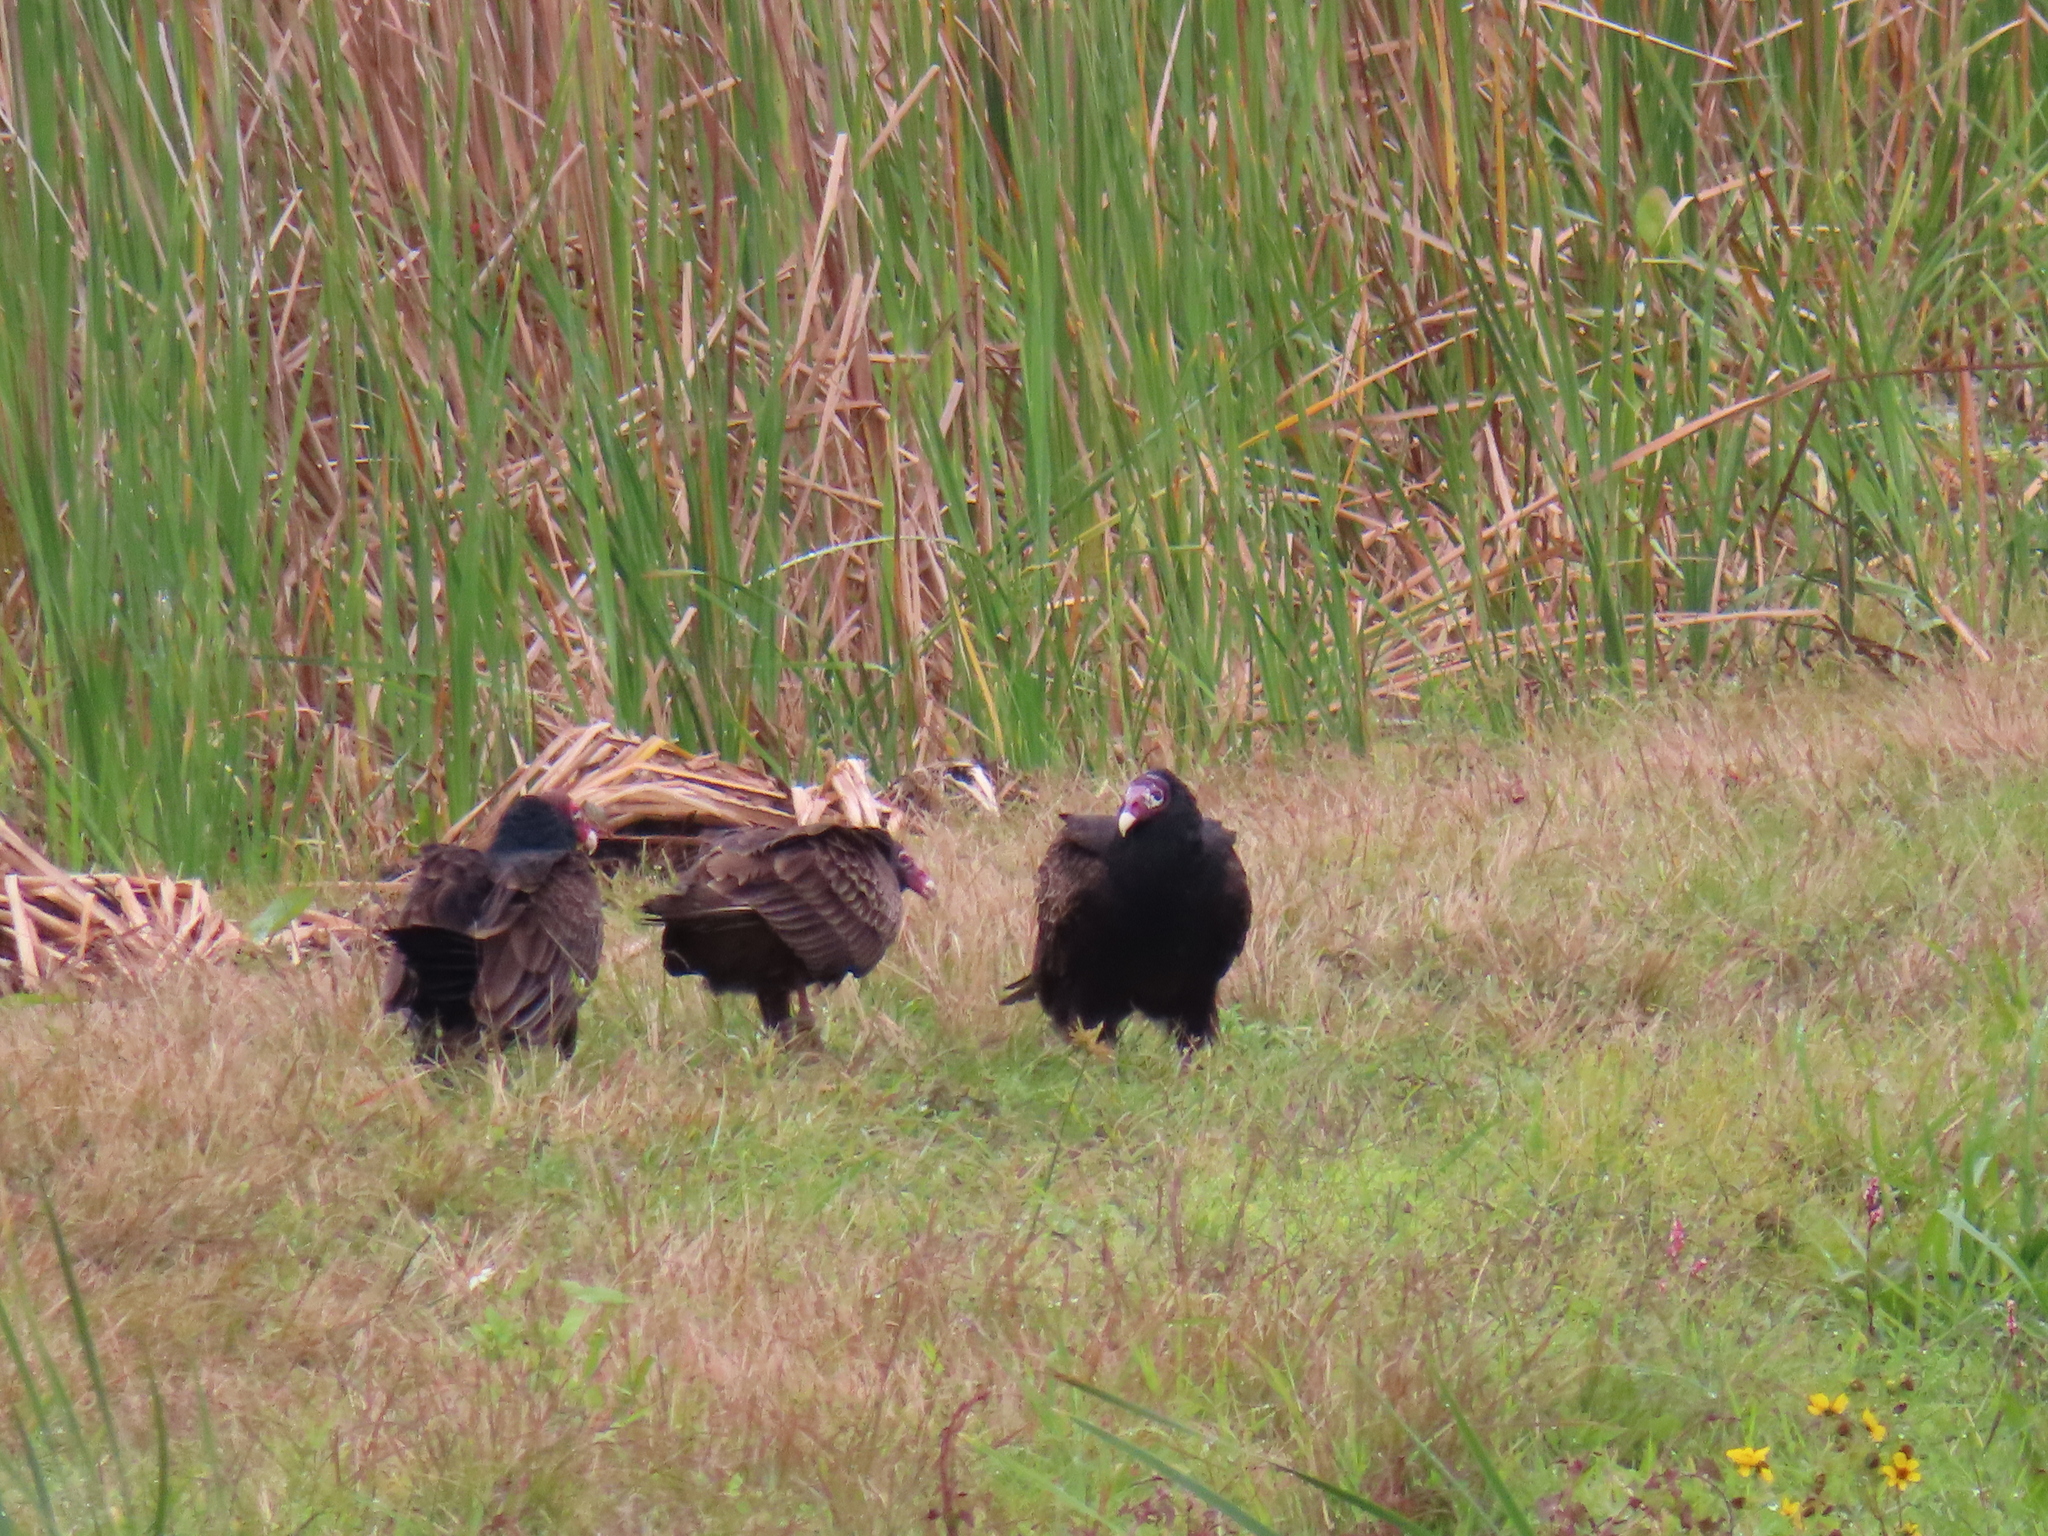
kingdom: Animalia
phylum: Chordata
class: Aves
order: Accipitriformes
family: Cathartidae
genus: Cathartes
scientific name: Cathartes aura
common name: Turkey vulture
